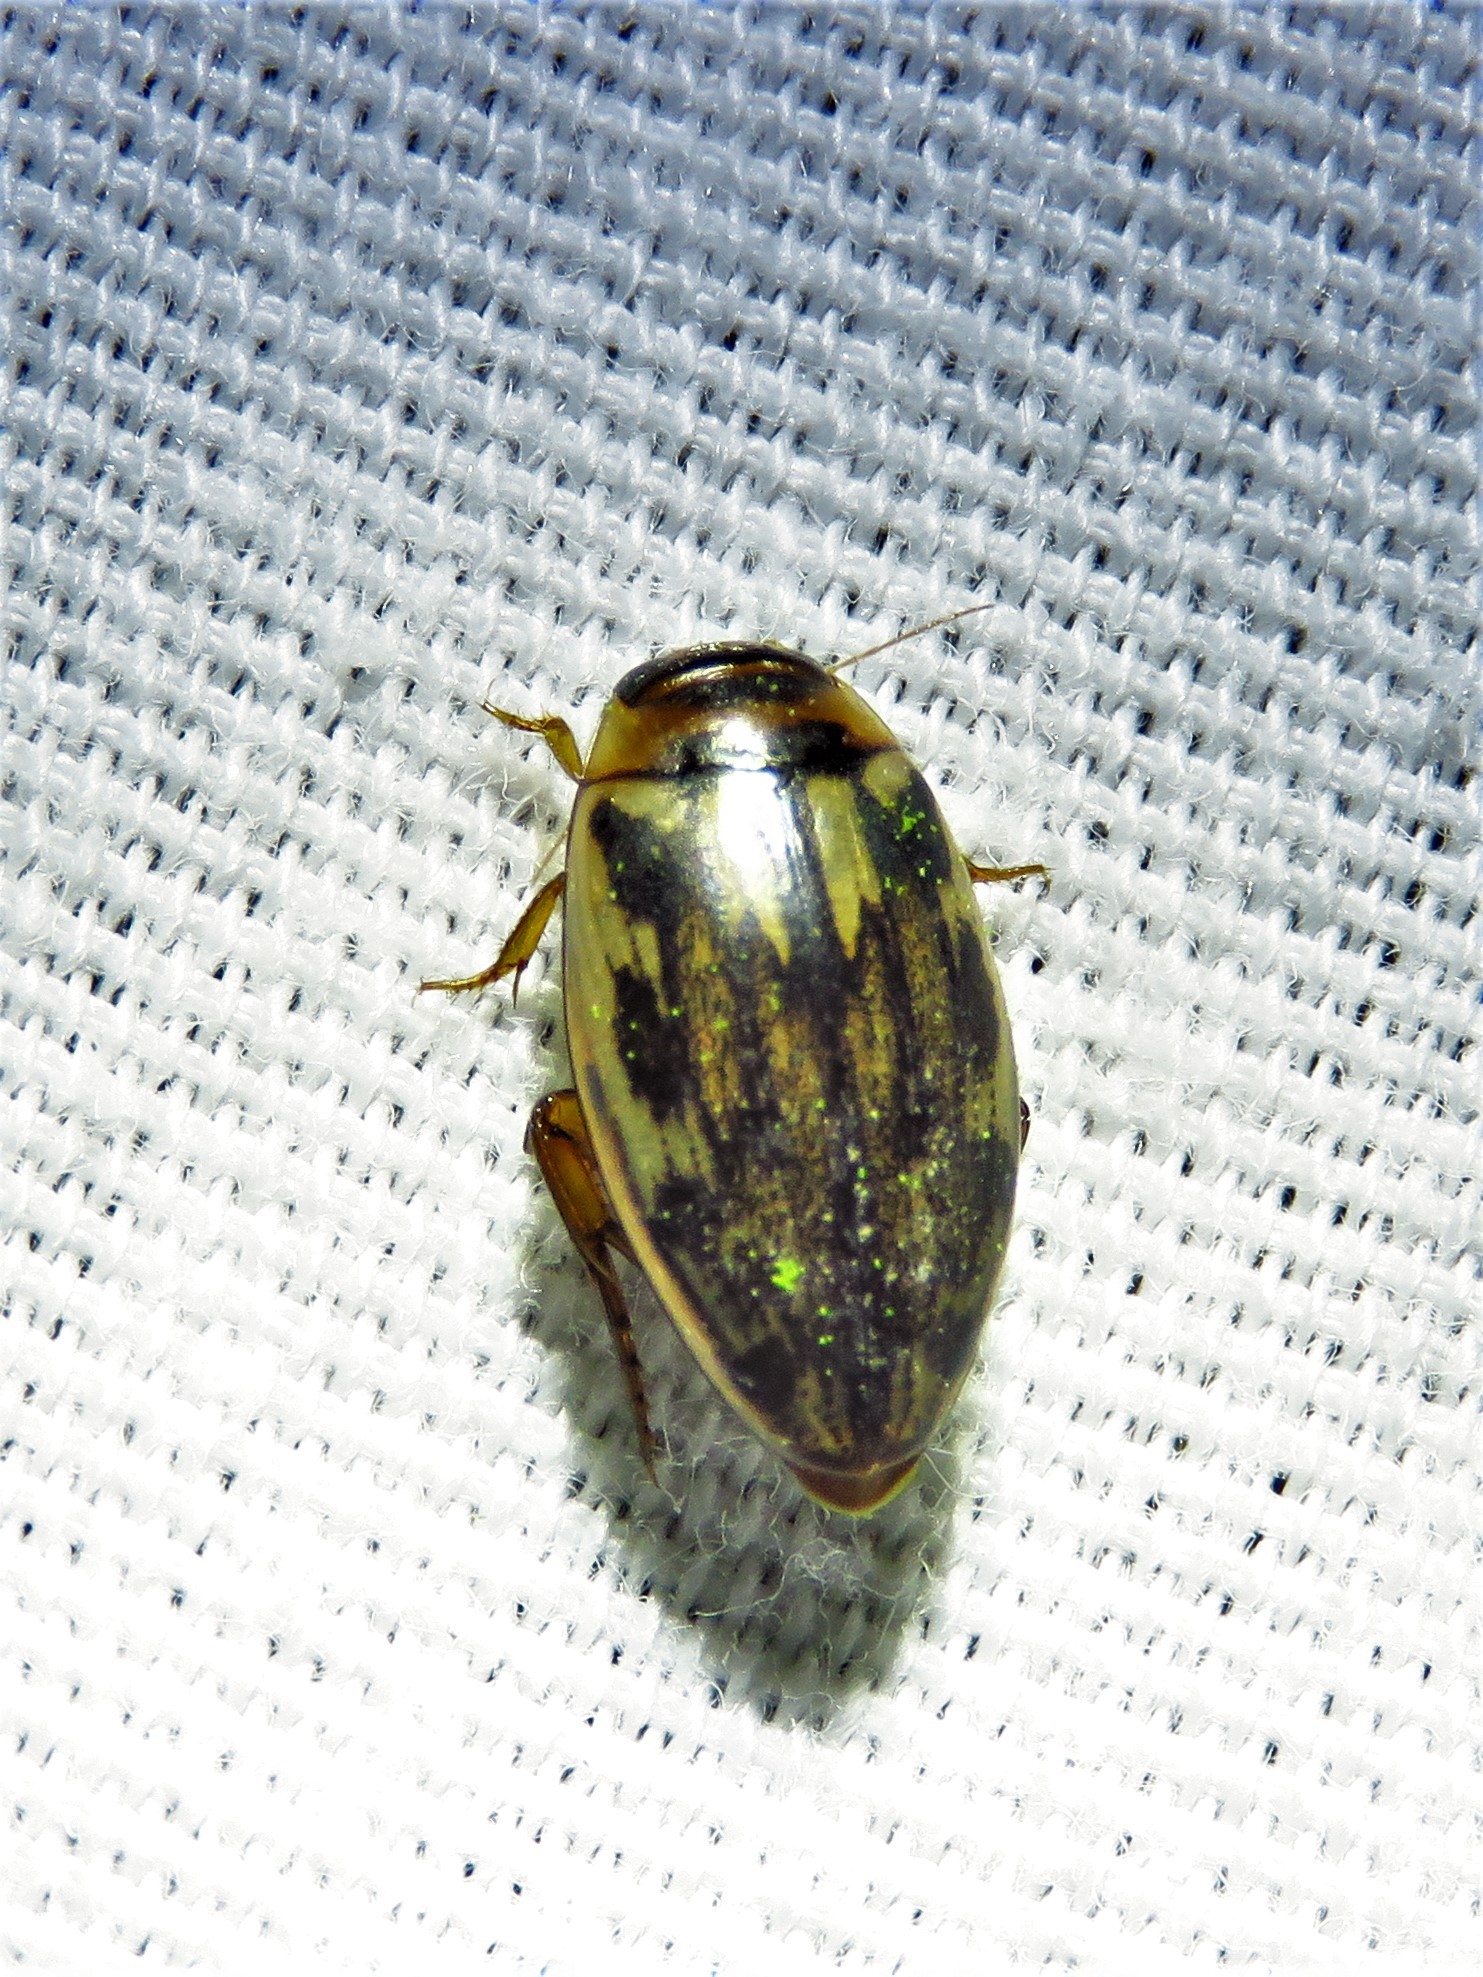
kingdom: Animalia
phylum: Arthropoda
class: Insecta
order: Coleoptera
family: Dytiscidae
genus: Coptotomus
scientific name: Coptotomus venustus
